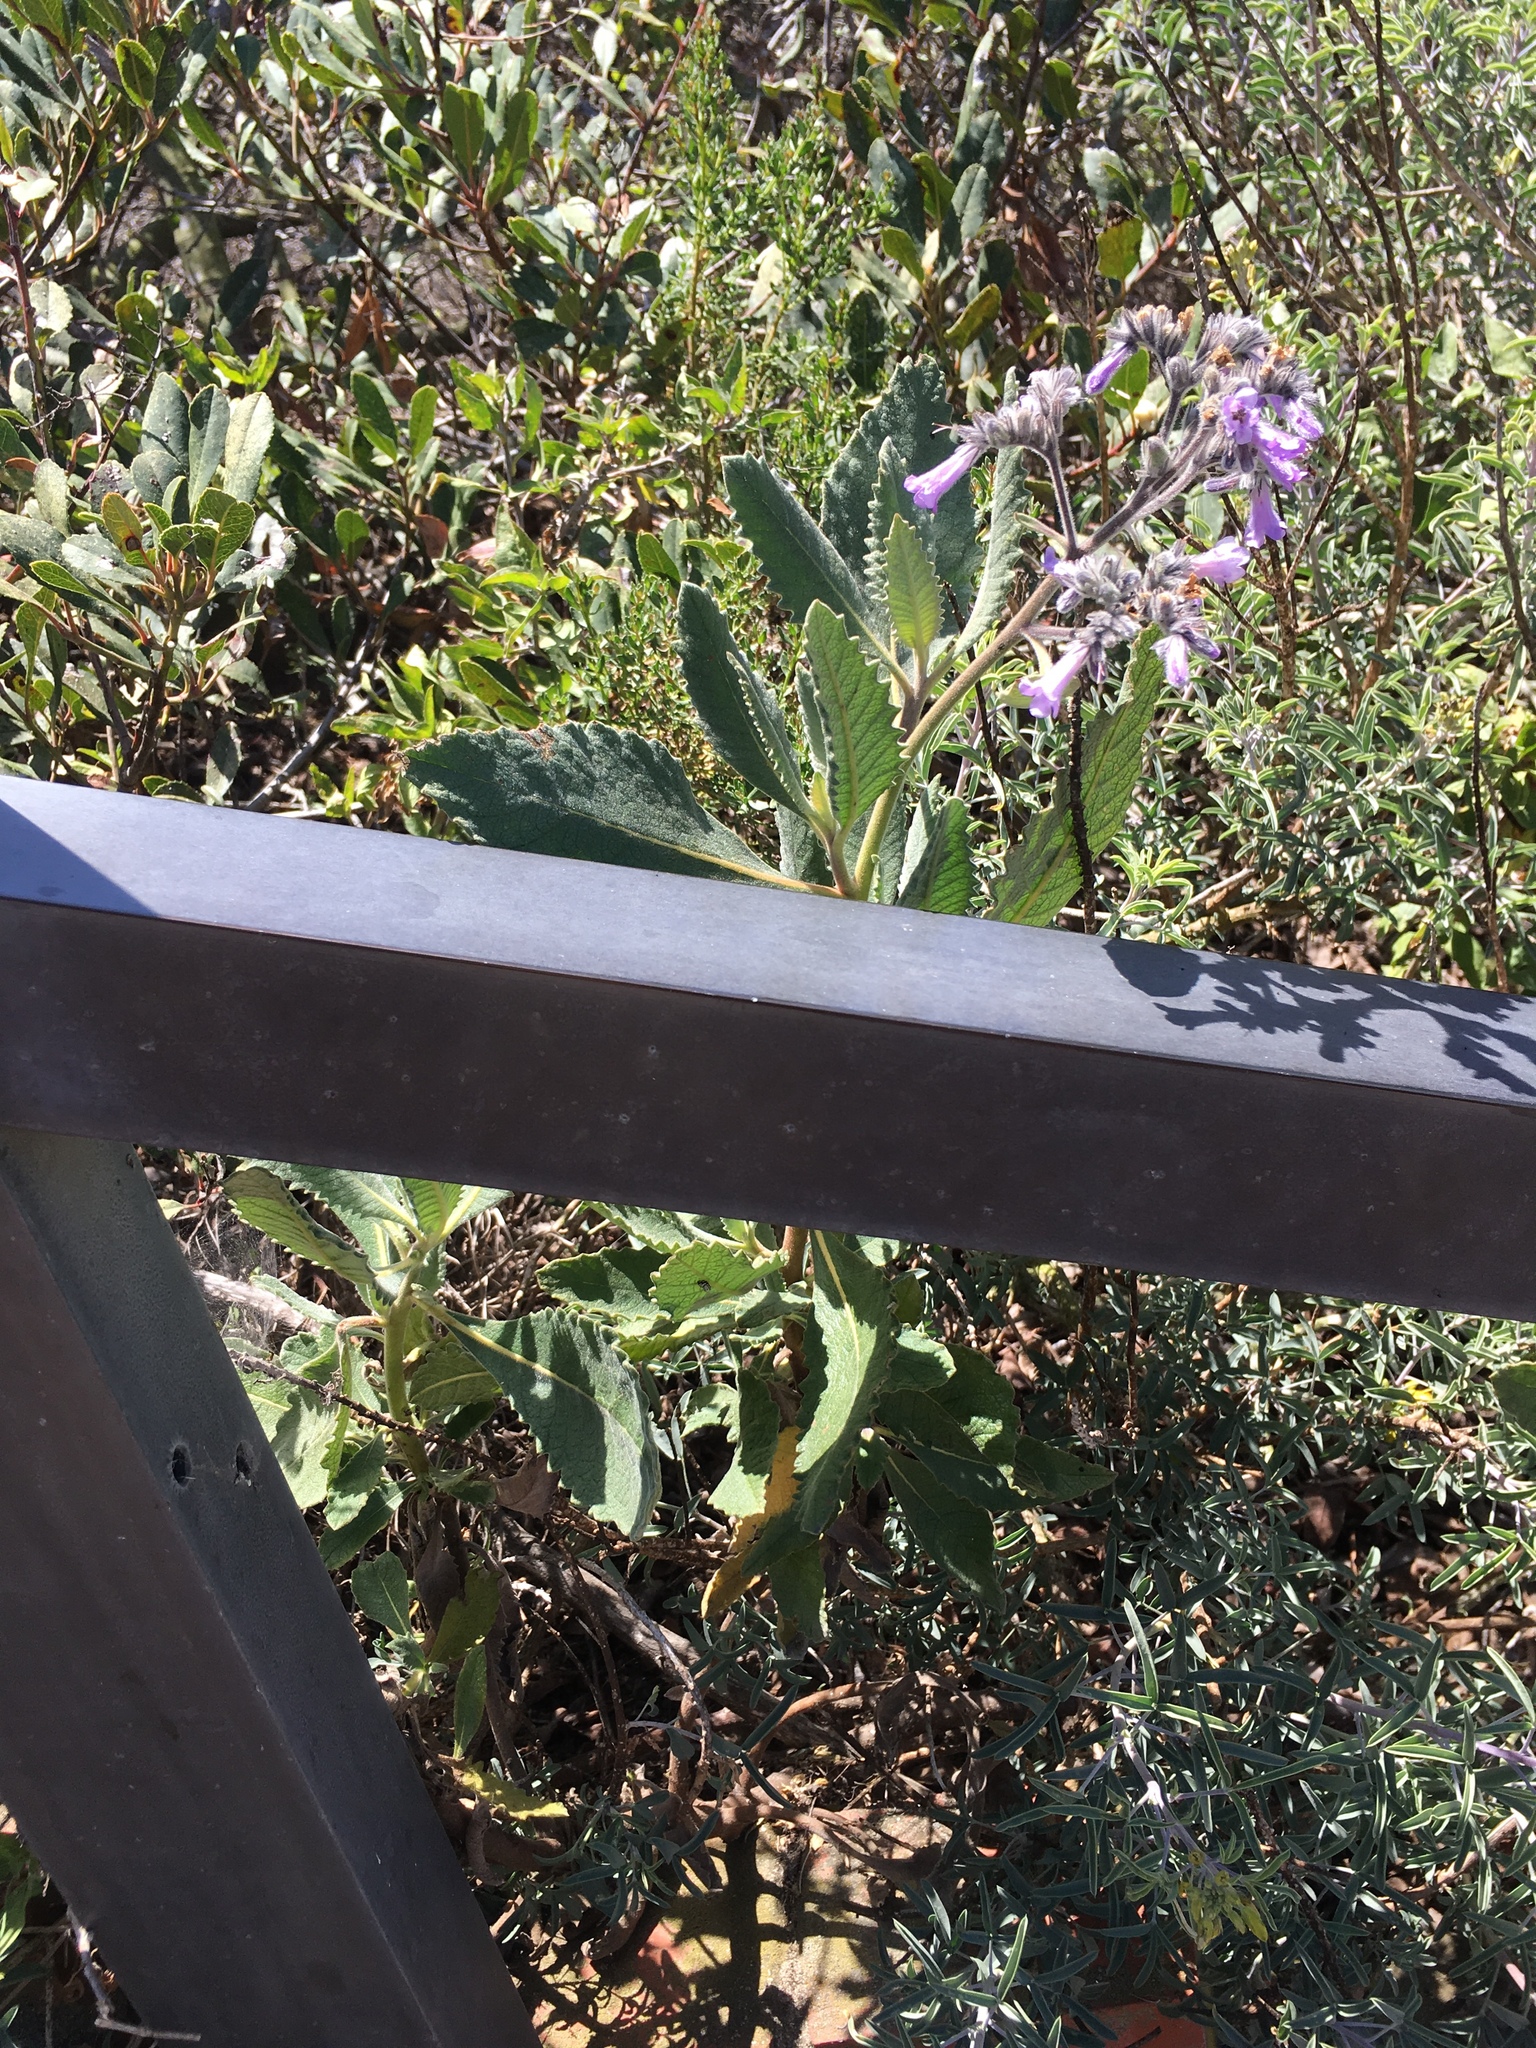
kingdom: Plantae
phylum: Tracheophyta
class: Magnoliopsida
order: Boraginales
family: Namaceae
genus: Eriodictyon
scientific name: Eriodictyon crassifolium
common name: Thick-leaf yerba-santa
